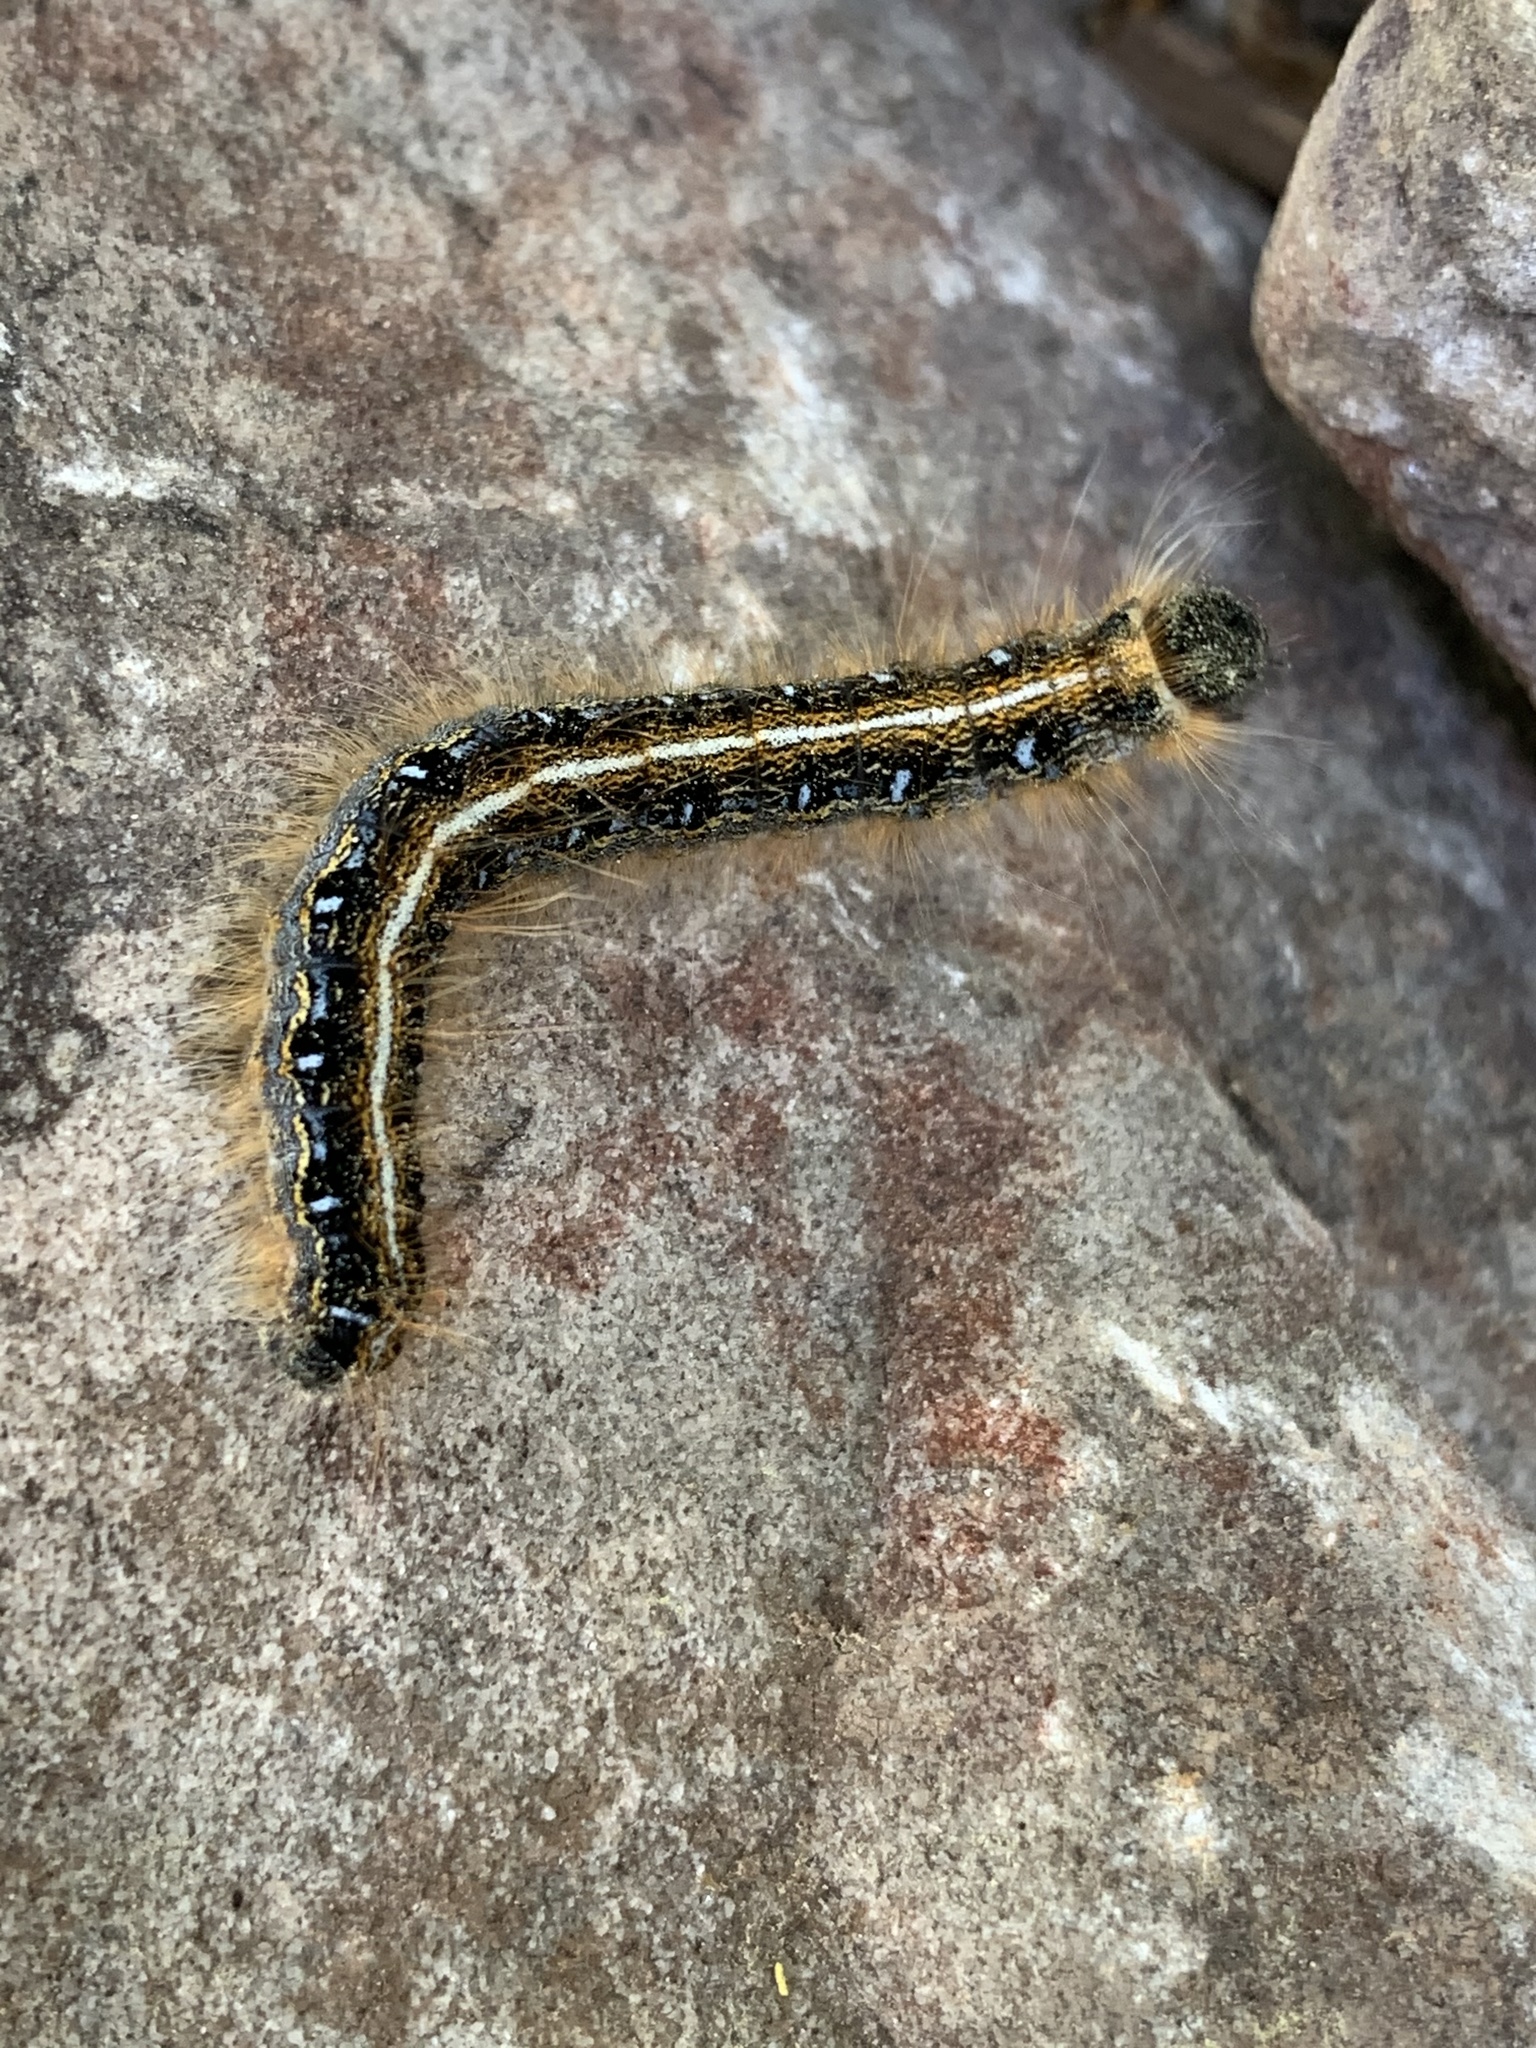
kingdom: Animalia
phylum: Arthropoda
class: Insecta
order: Lepidoptera
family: Lasiocampidae
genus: Malacosoma
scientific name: Malacosoma americana
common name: Eastern tent caterpillar moth
